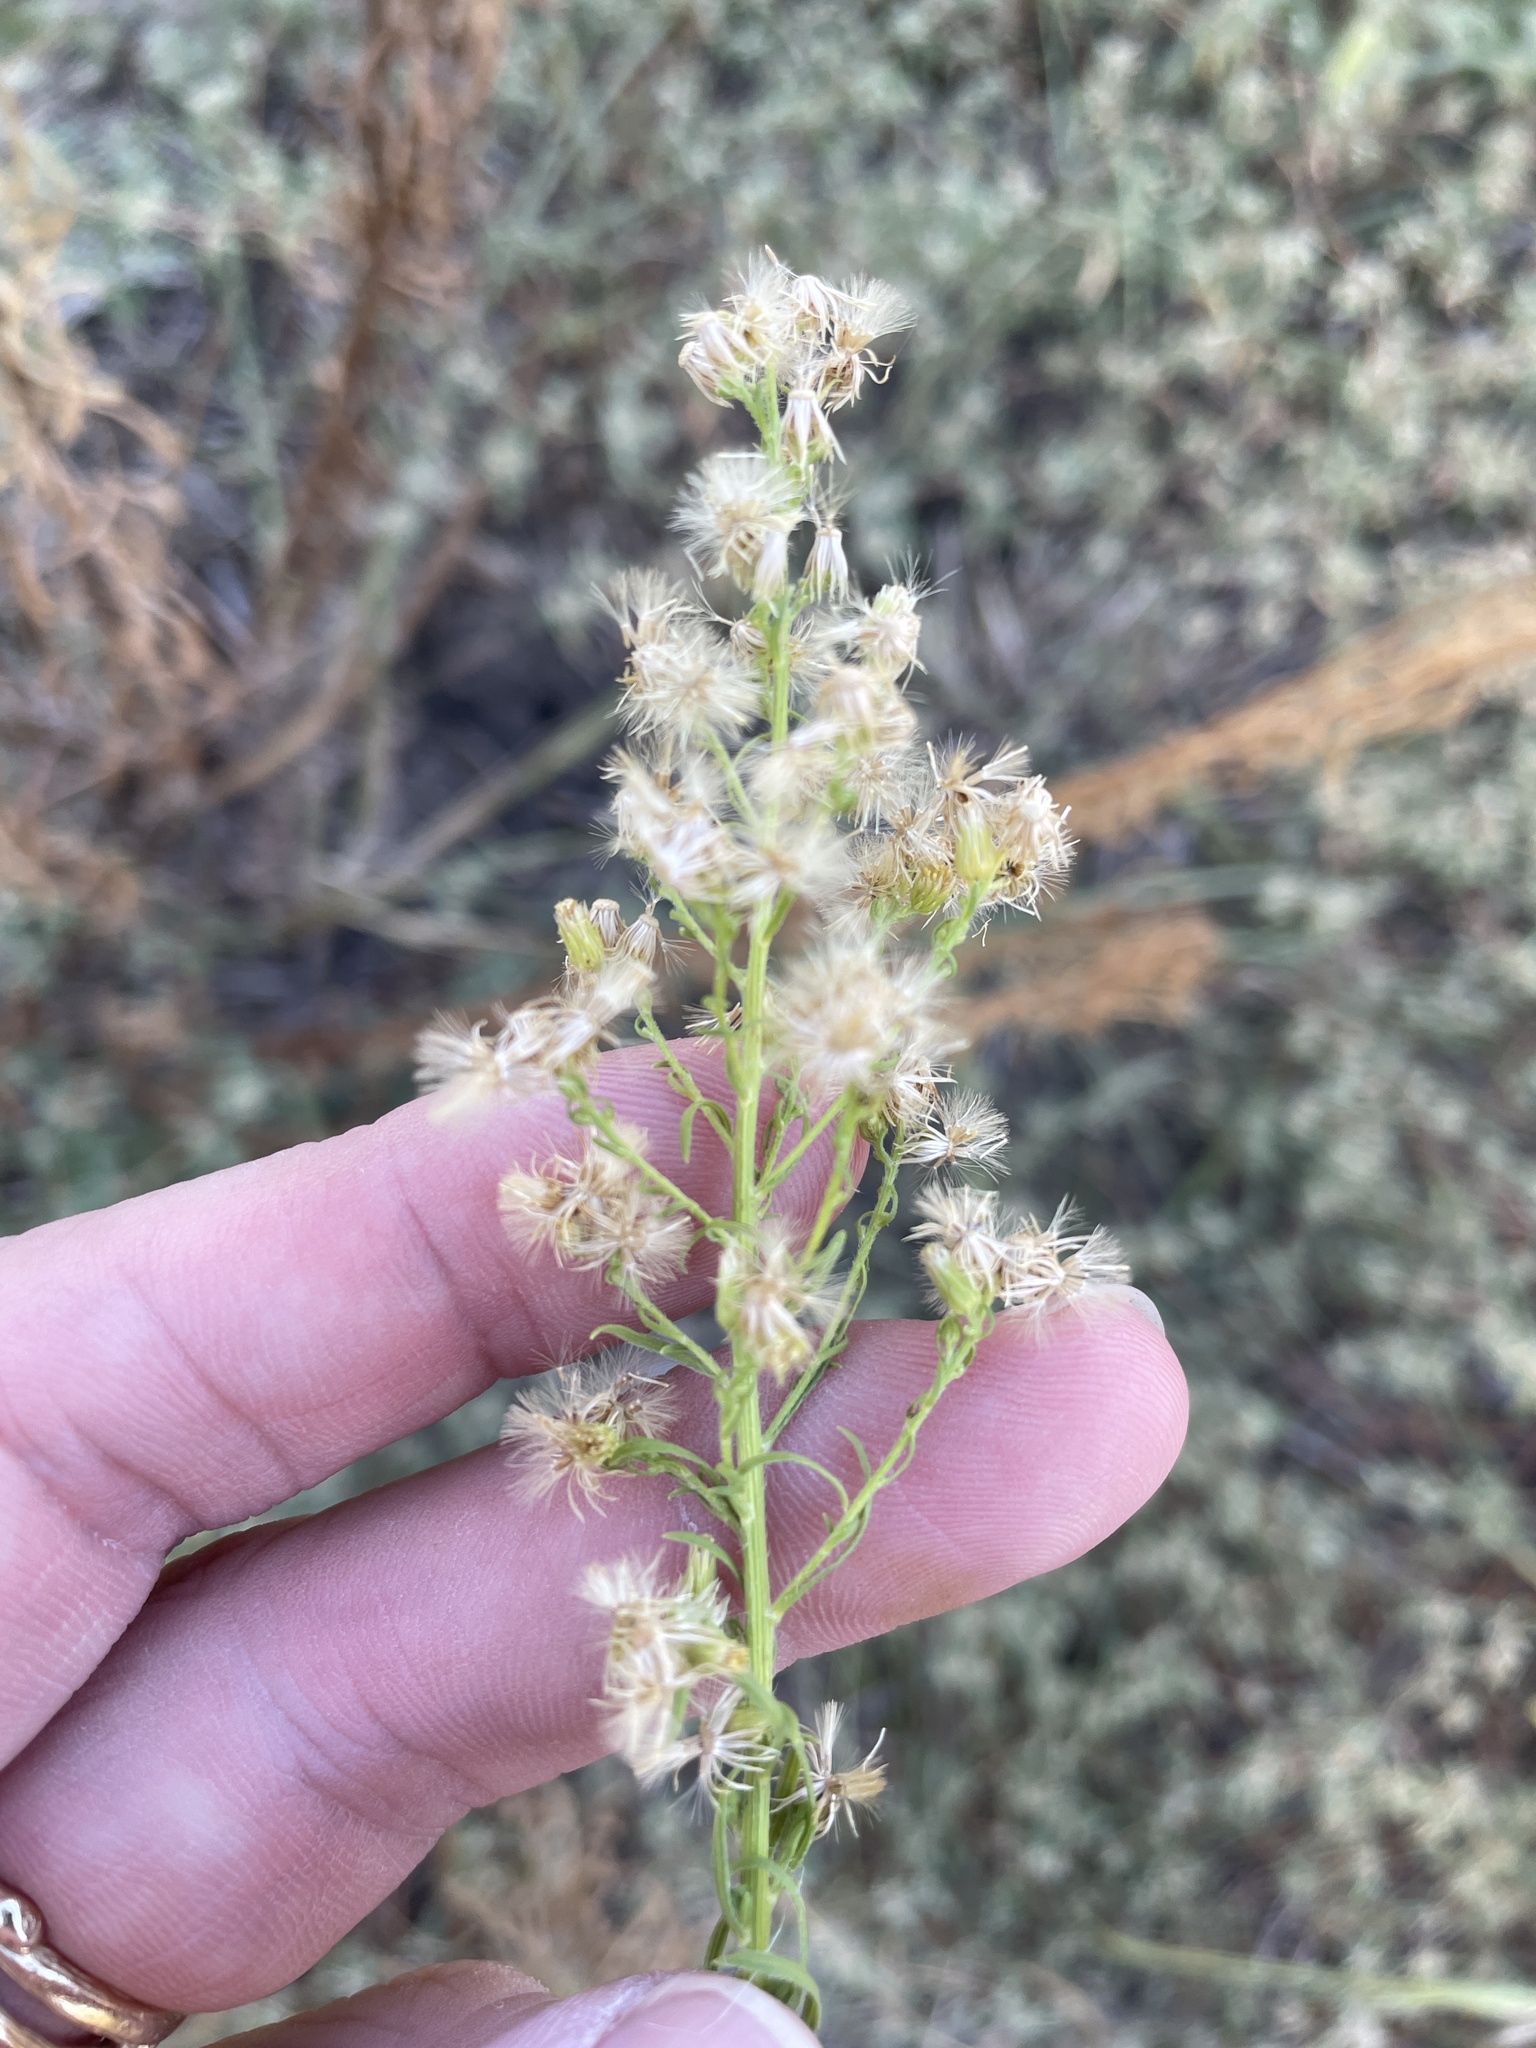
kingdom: Plantae
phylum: Tracheophyta
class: Magnoliopsida
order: Asterales
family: Asteraceae
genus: Erigeron
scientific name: Erigeron canadensis
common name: Canadian fleabane
